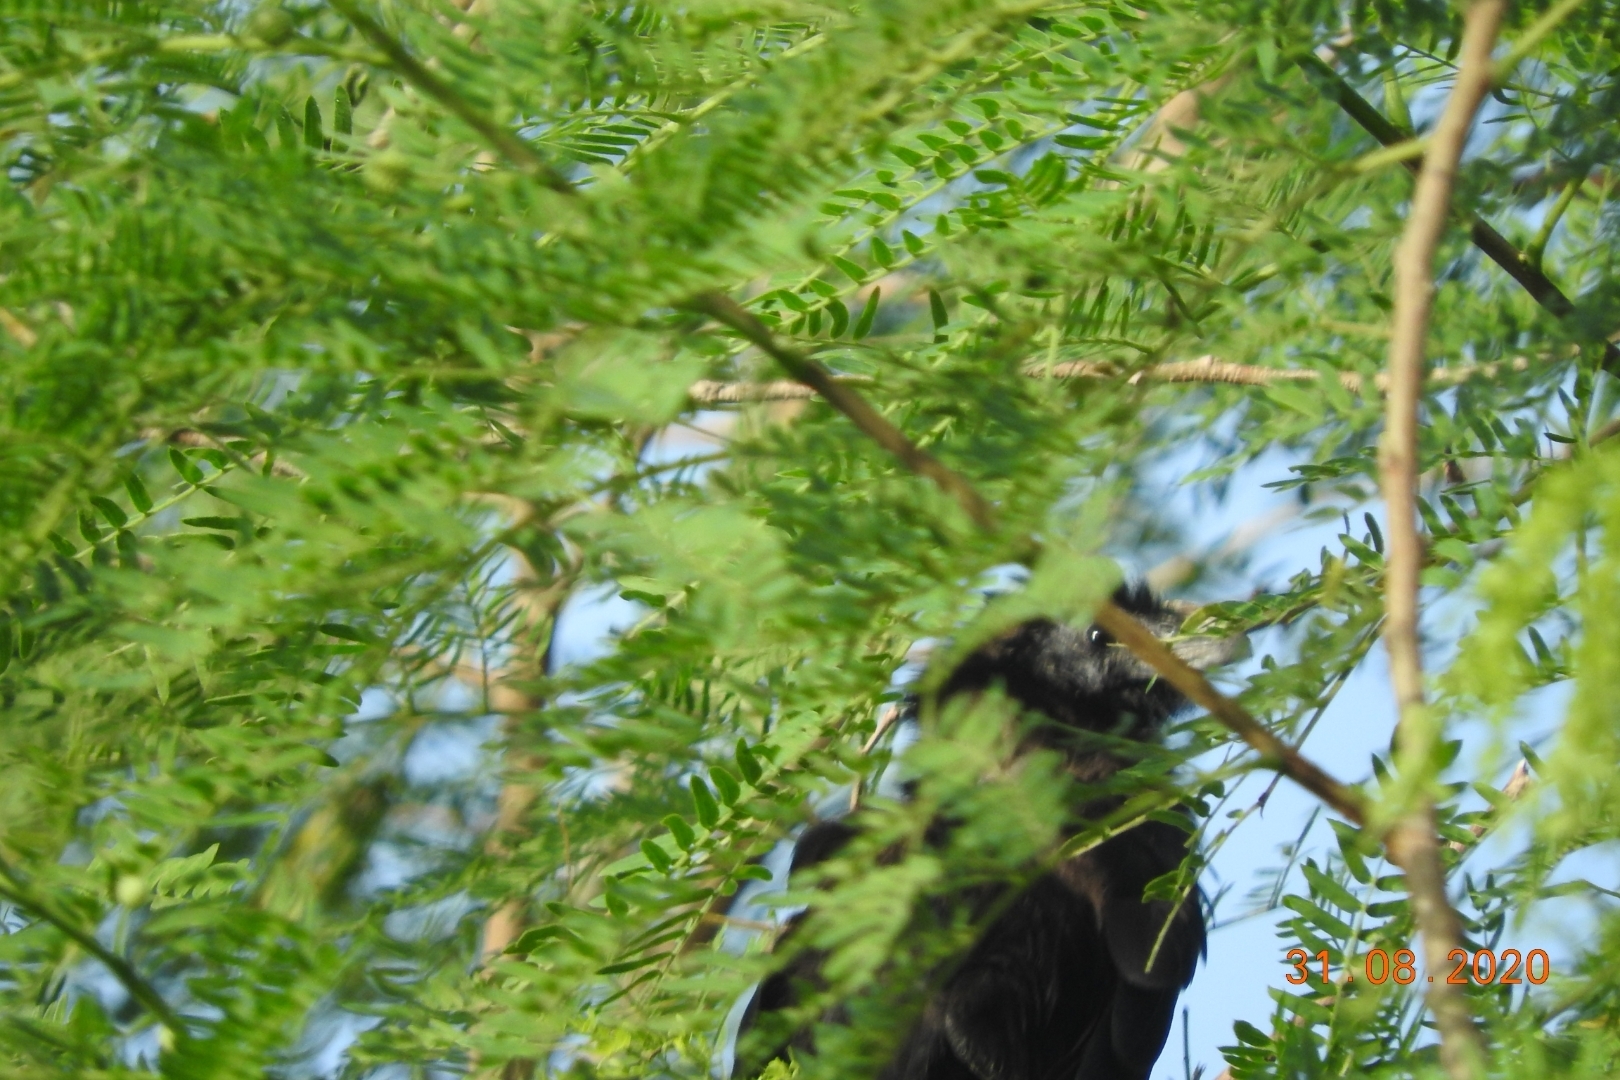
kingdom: Animalia
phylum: Chordata
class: Aves
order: Cuculiformes
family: Cuculidae
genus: Crotophaga
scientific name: Crotophaga sulcirostris
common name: Groove-billed ani
